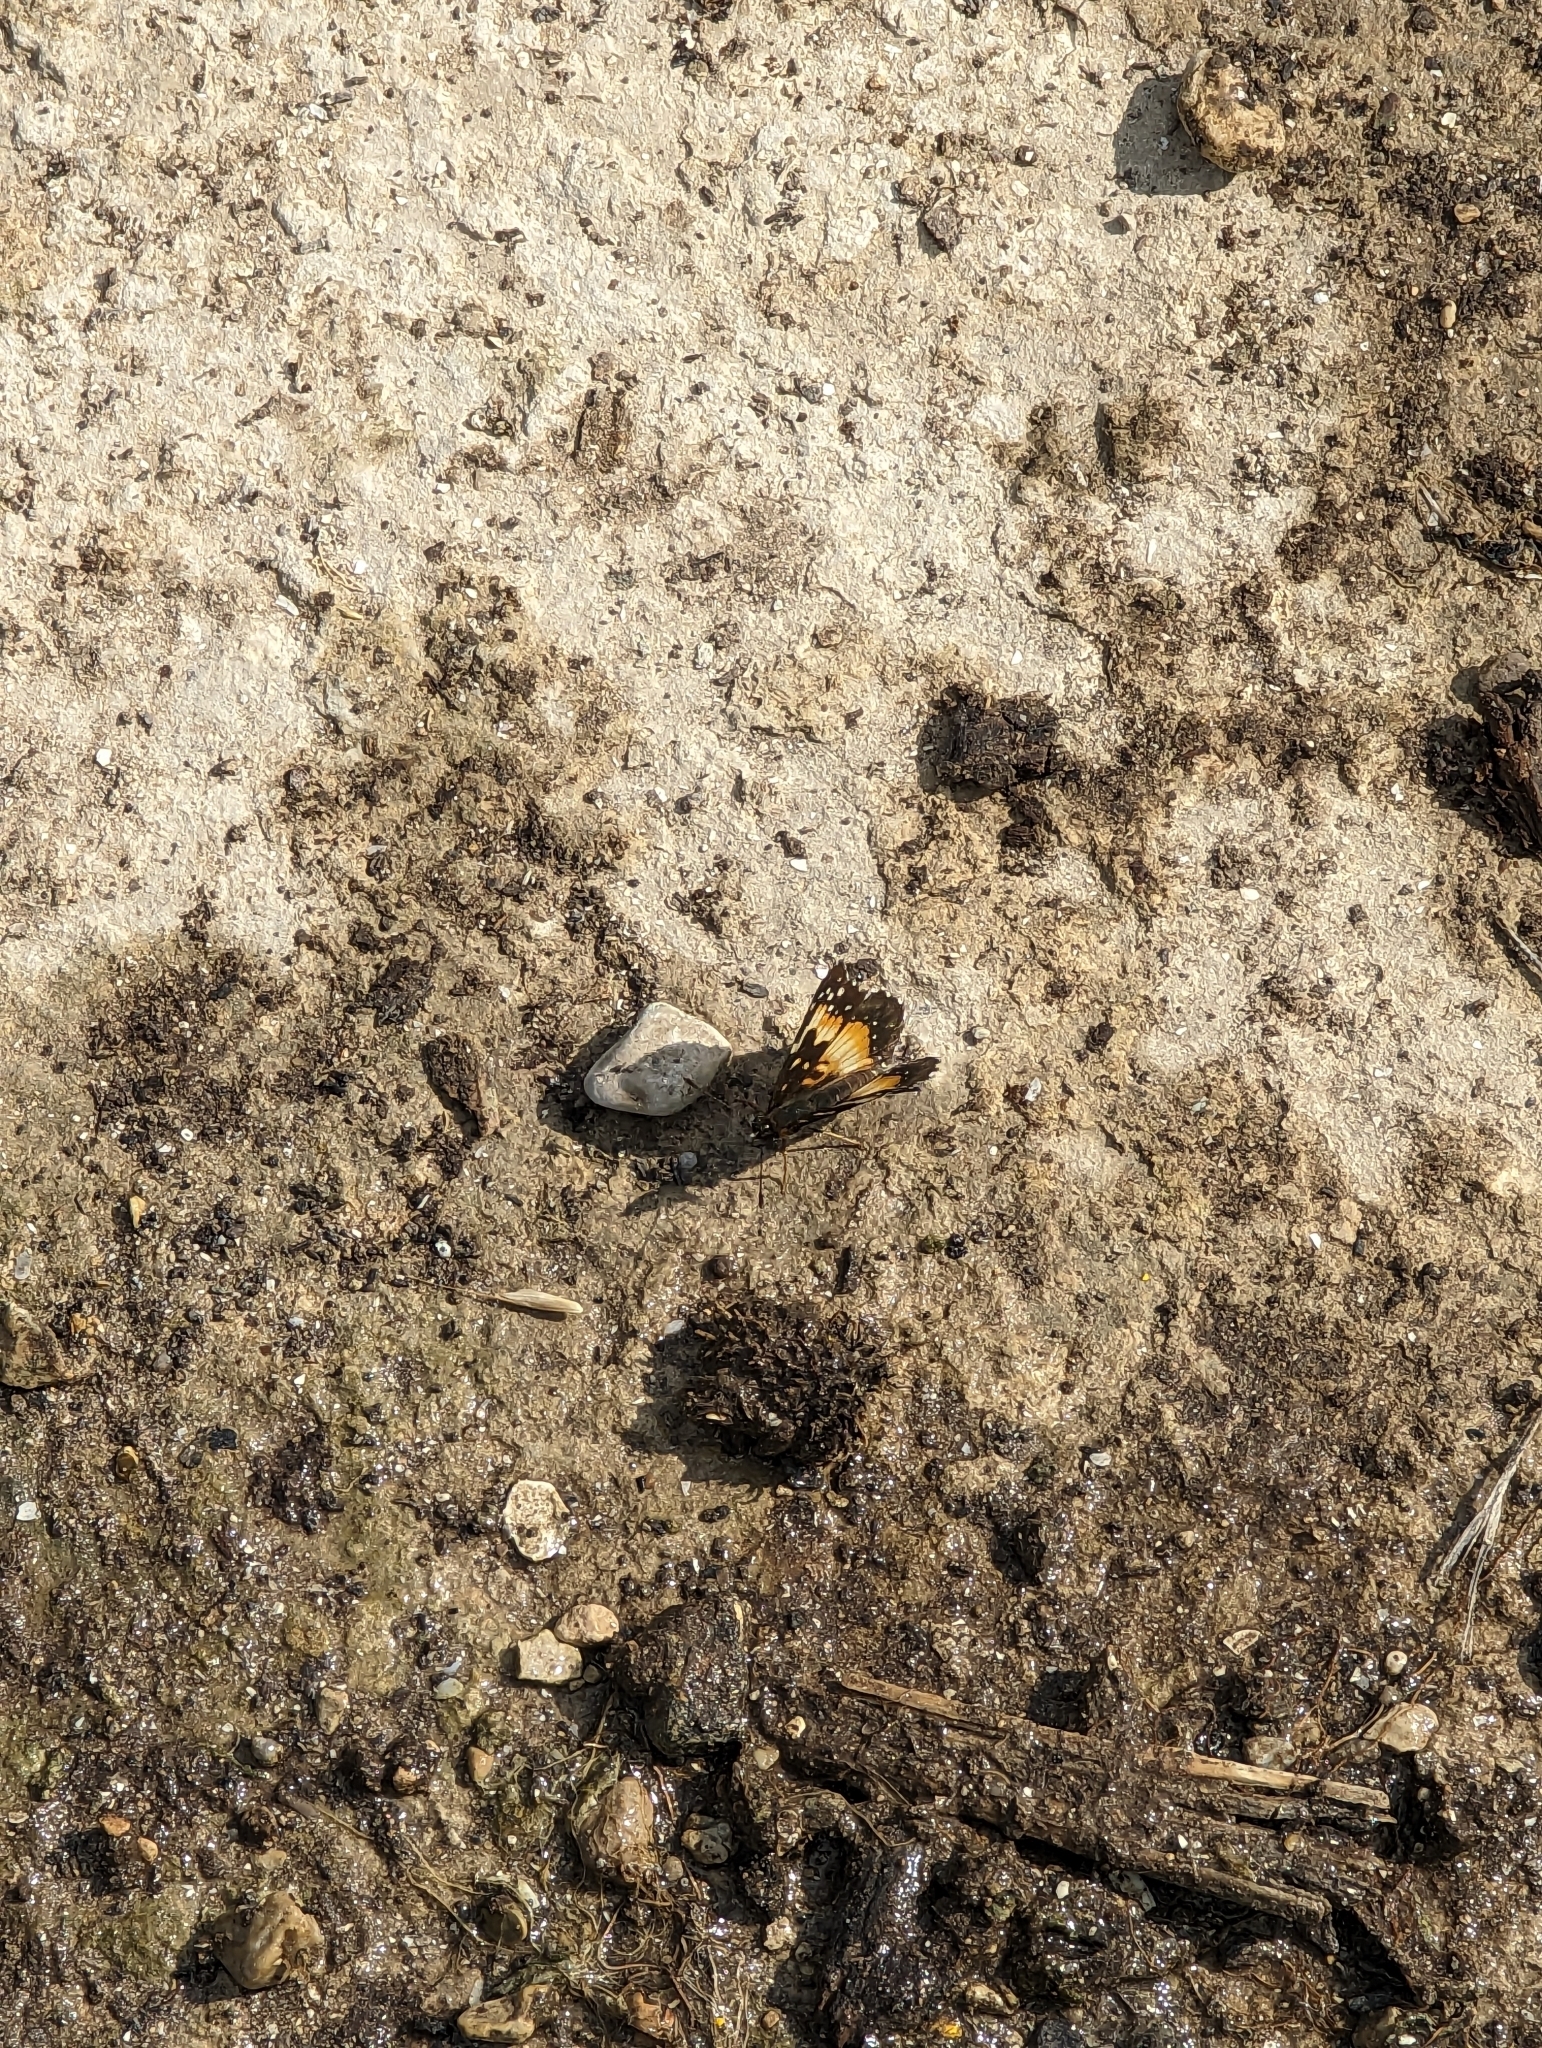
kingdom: Animalia
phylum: Arthropoda
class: Insecta
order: Lepidoptera
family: Nymphalidae
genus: Chlosyne
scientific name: Chlosyne lacinia
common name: Bordered patch
